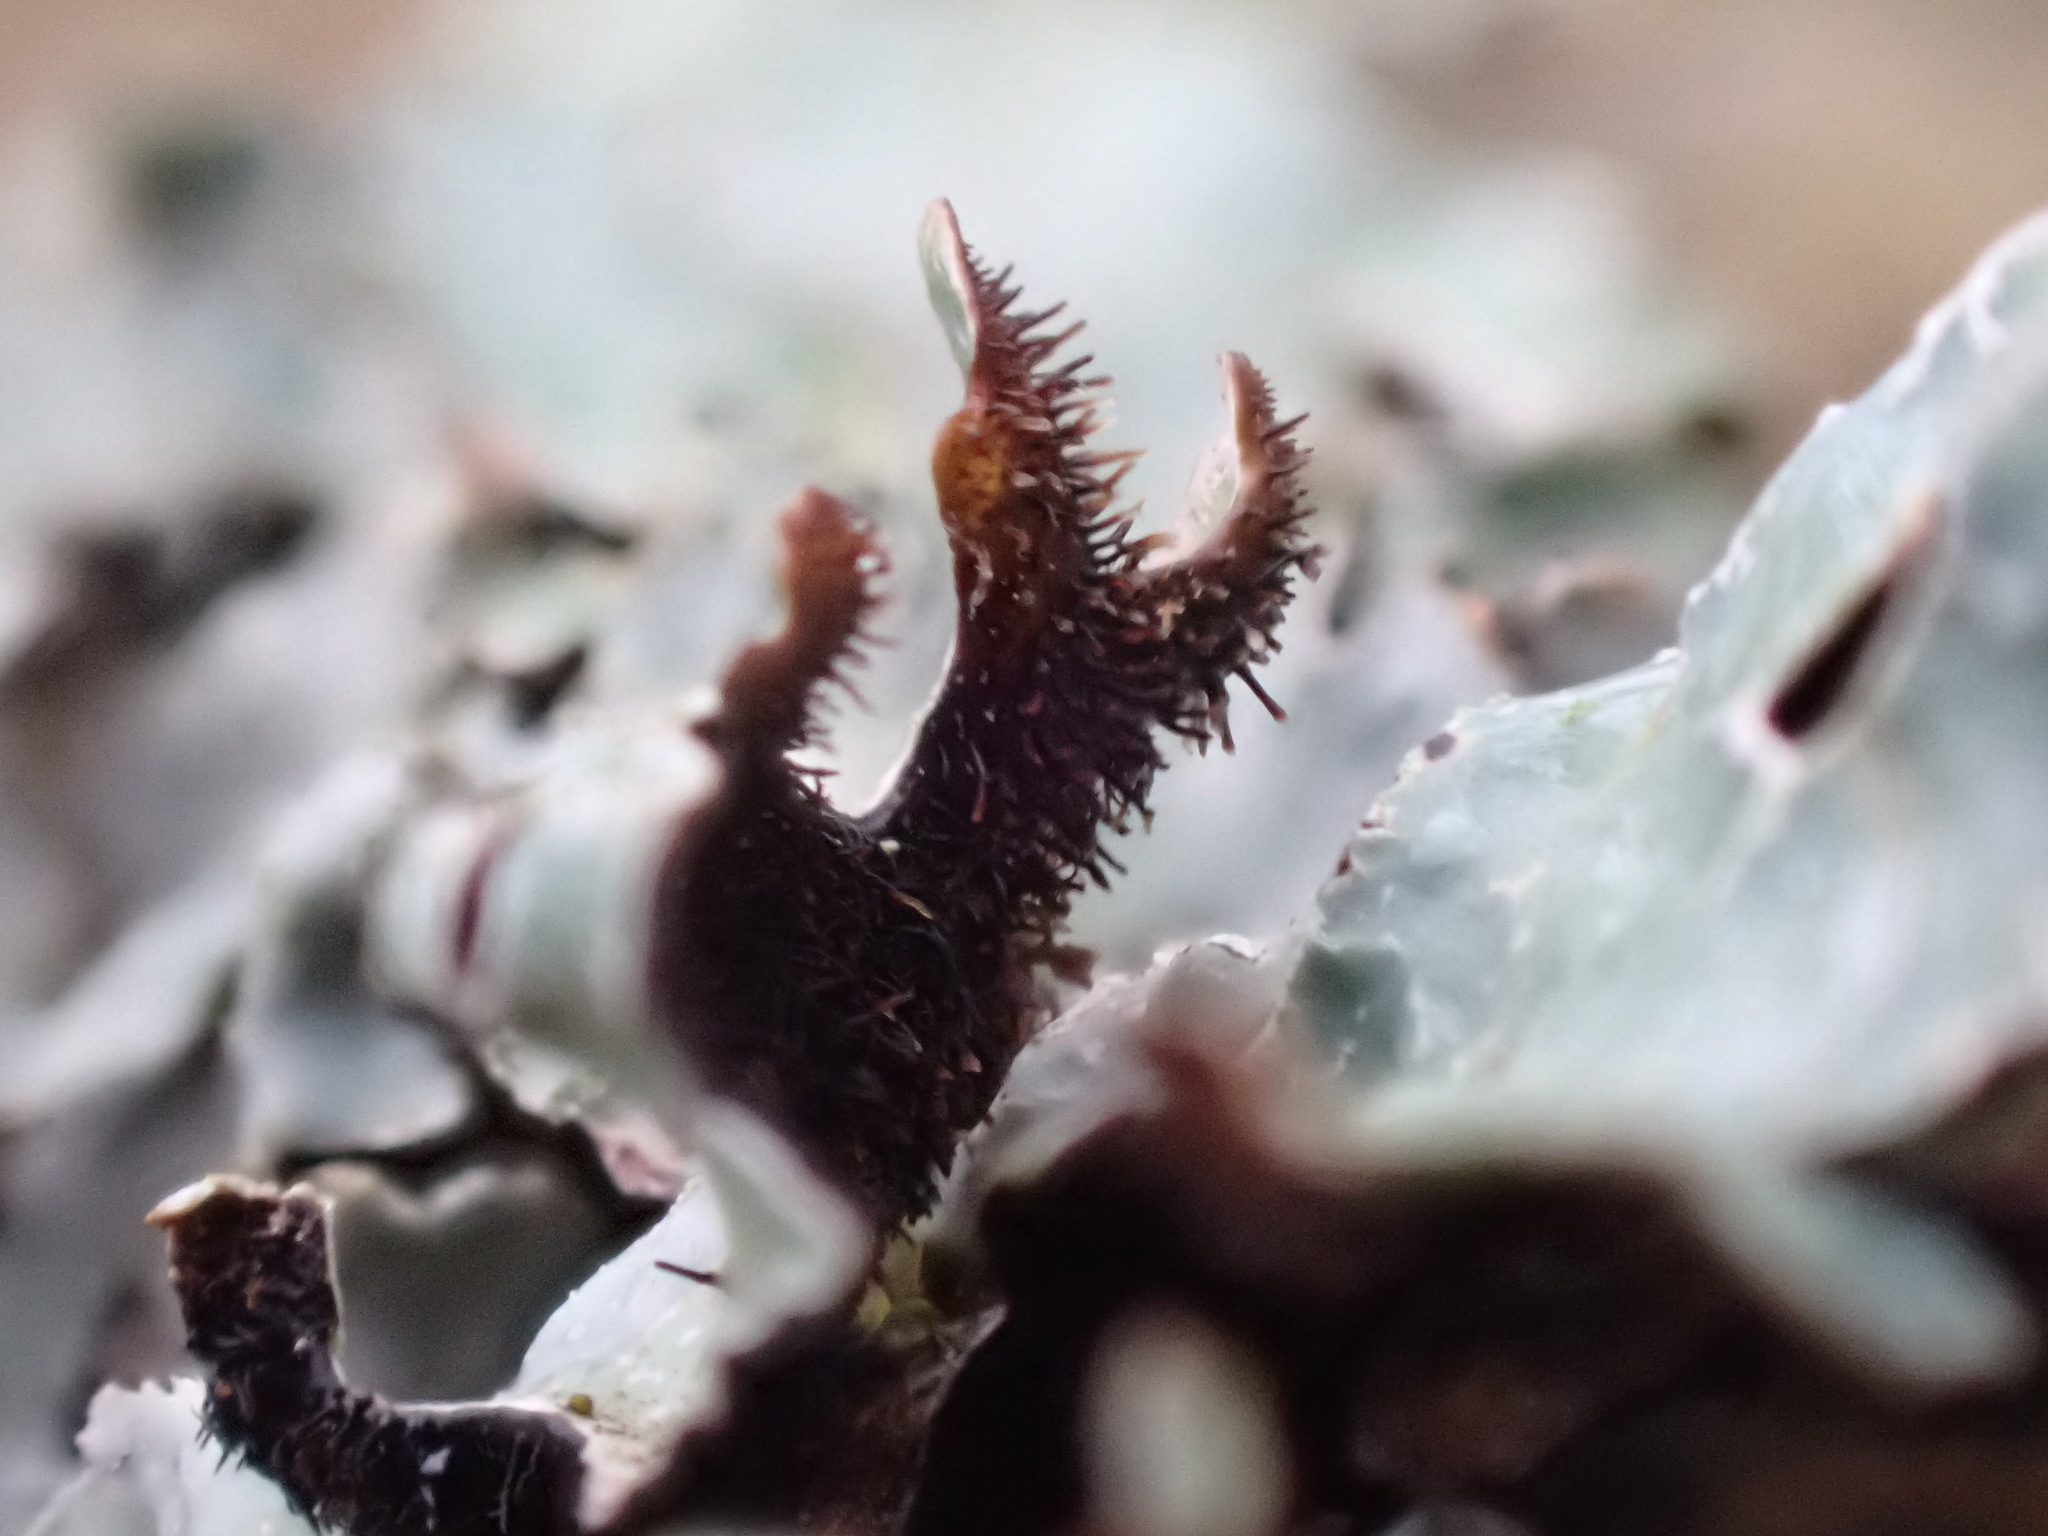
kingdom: Fungi
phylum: Ascomycota
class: Lecanoromycetes
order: Lecanorales
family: Parmeliaceae
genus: Parmelia
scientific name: Parmelia sulcata
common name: Netted shield lichen
